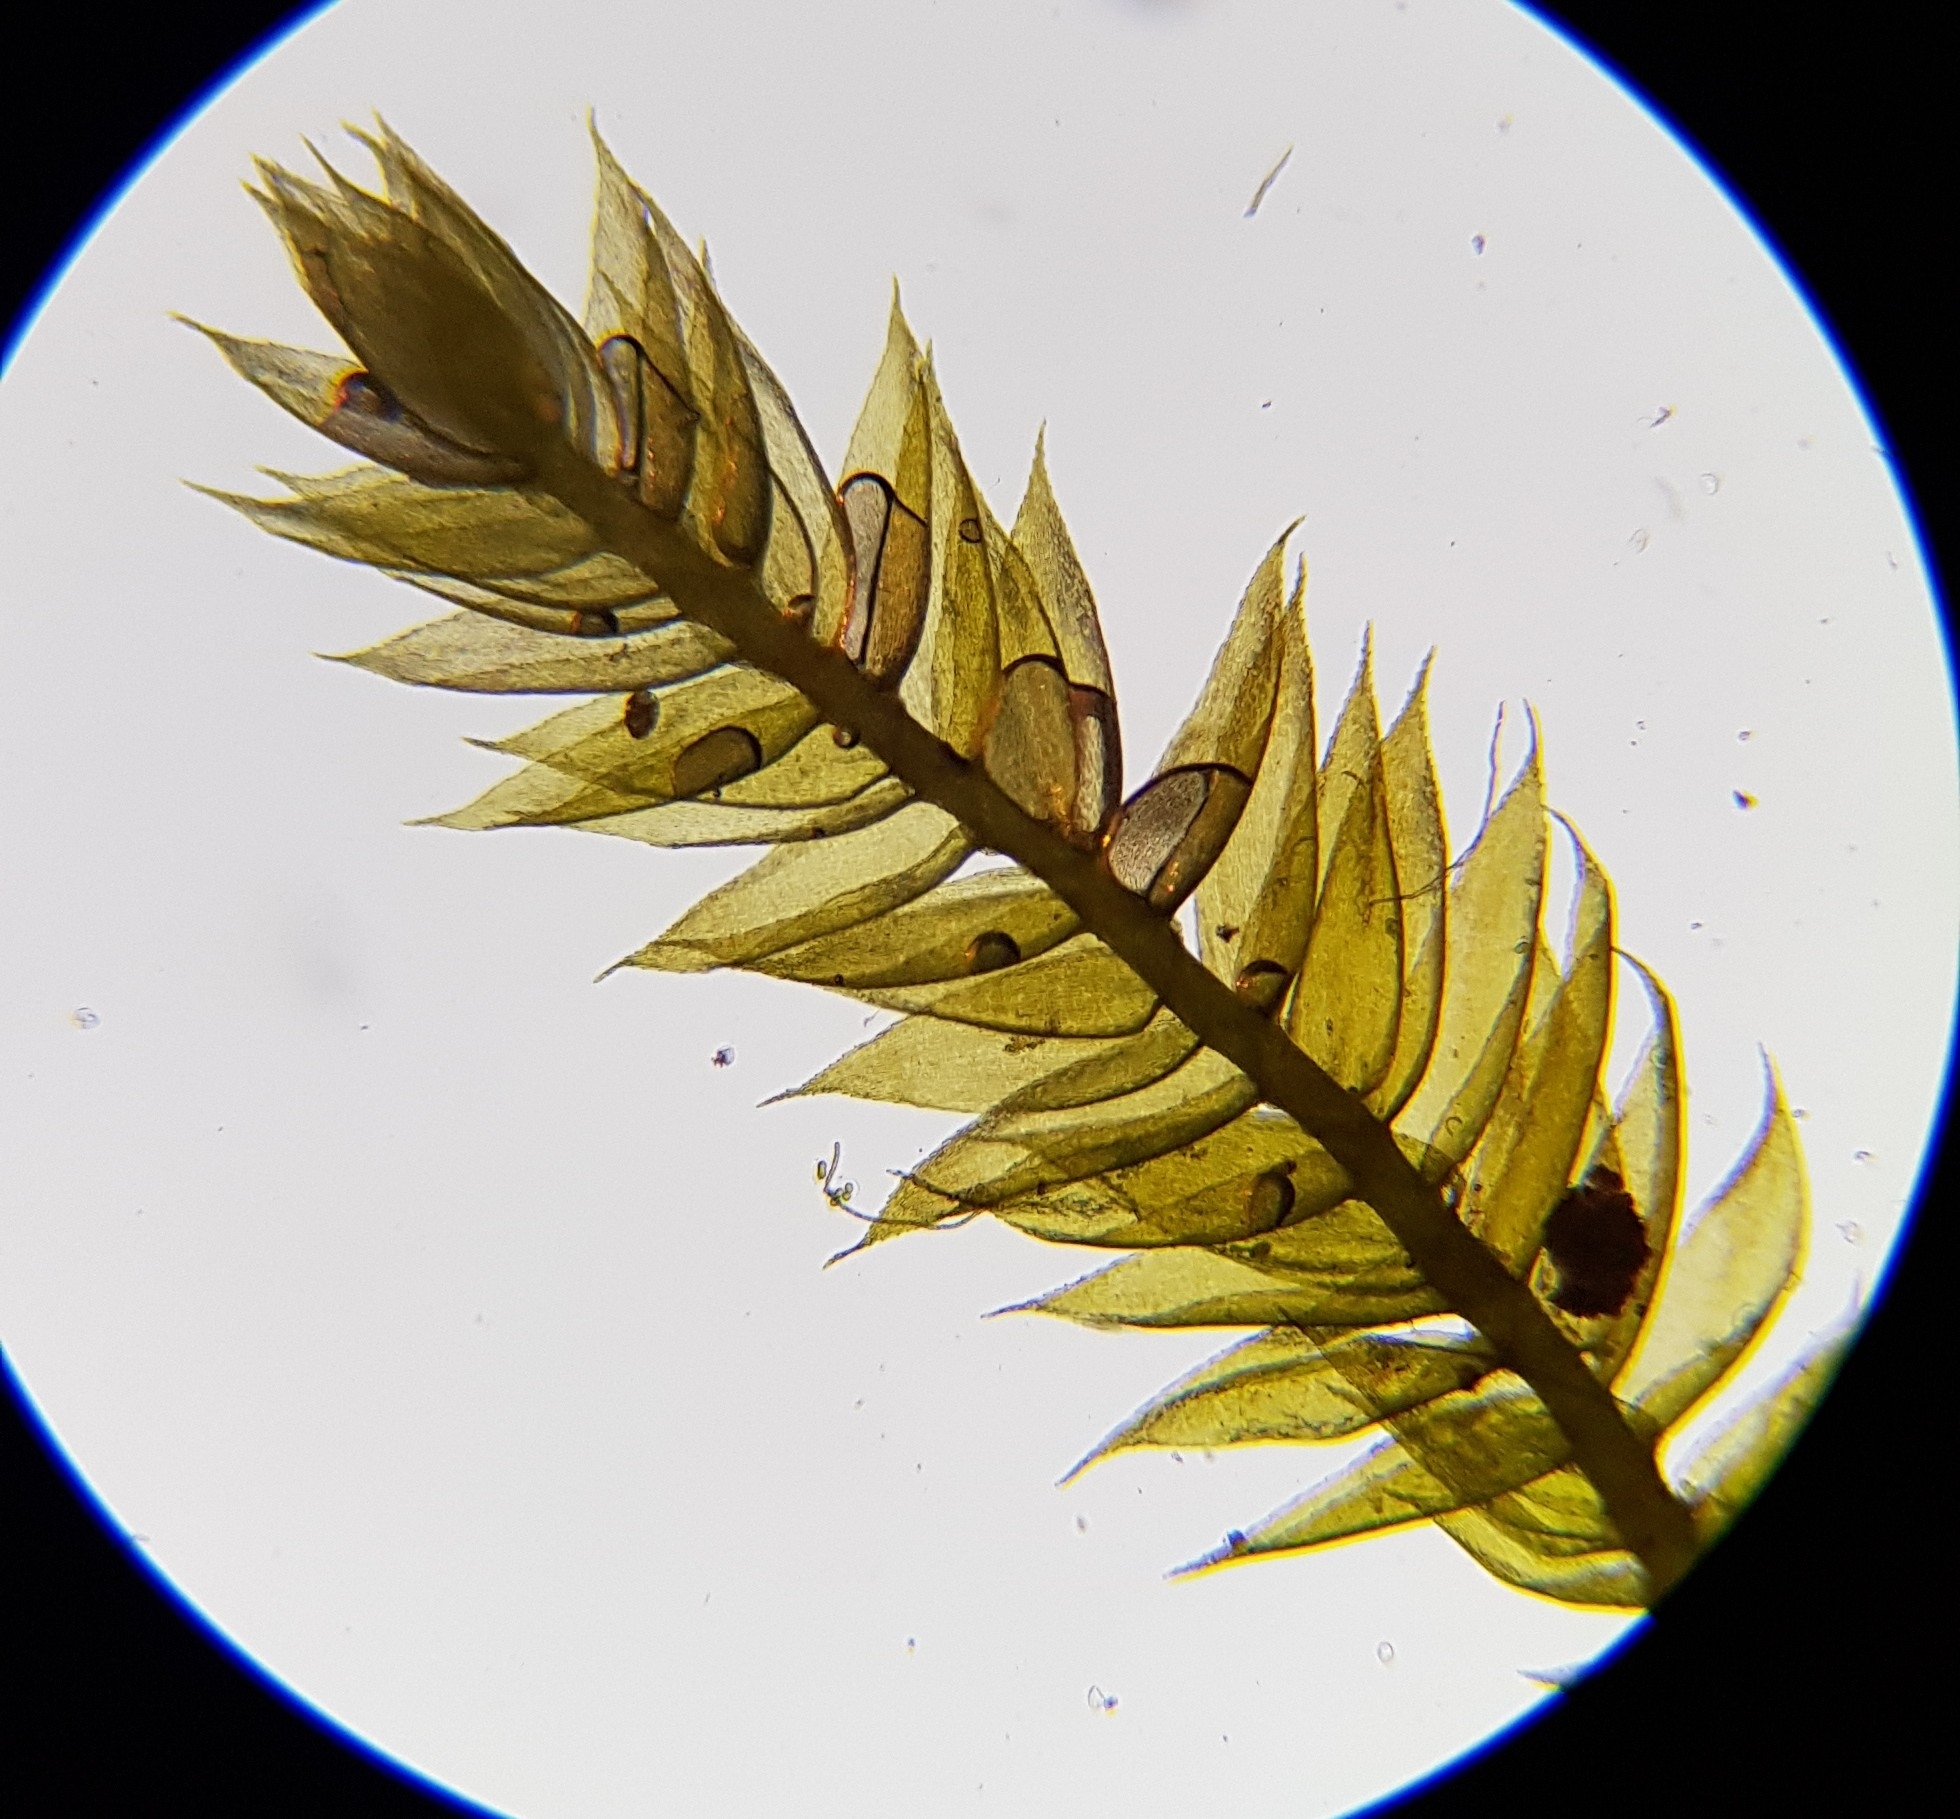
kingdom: Plantae
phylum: Bryophyta
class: Bryopsida
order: Hypnales
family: Plagiotheciaceae
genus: Pseudotaxiphyllum
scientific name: Pseudotaxiphyllum elegans
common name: Elegant silk moss
